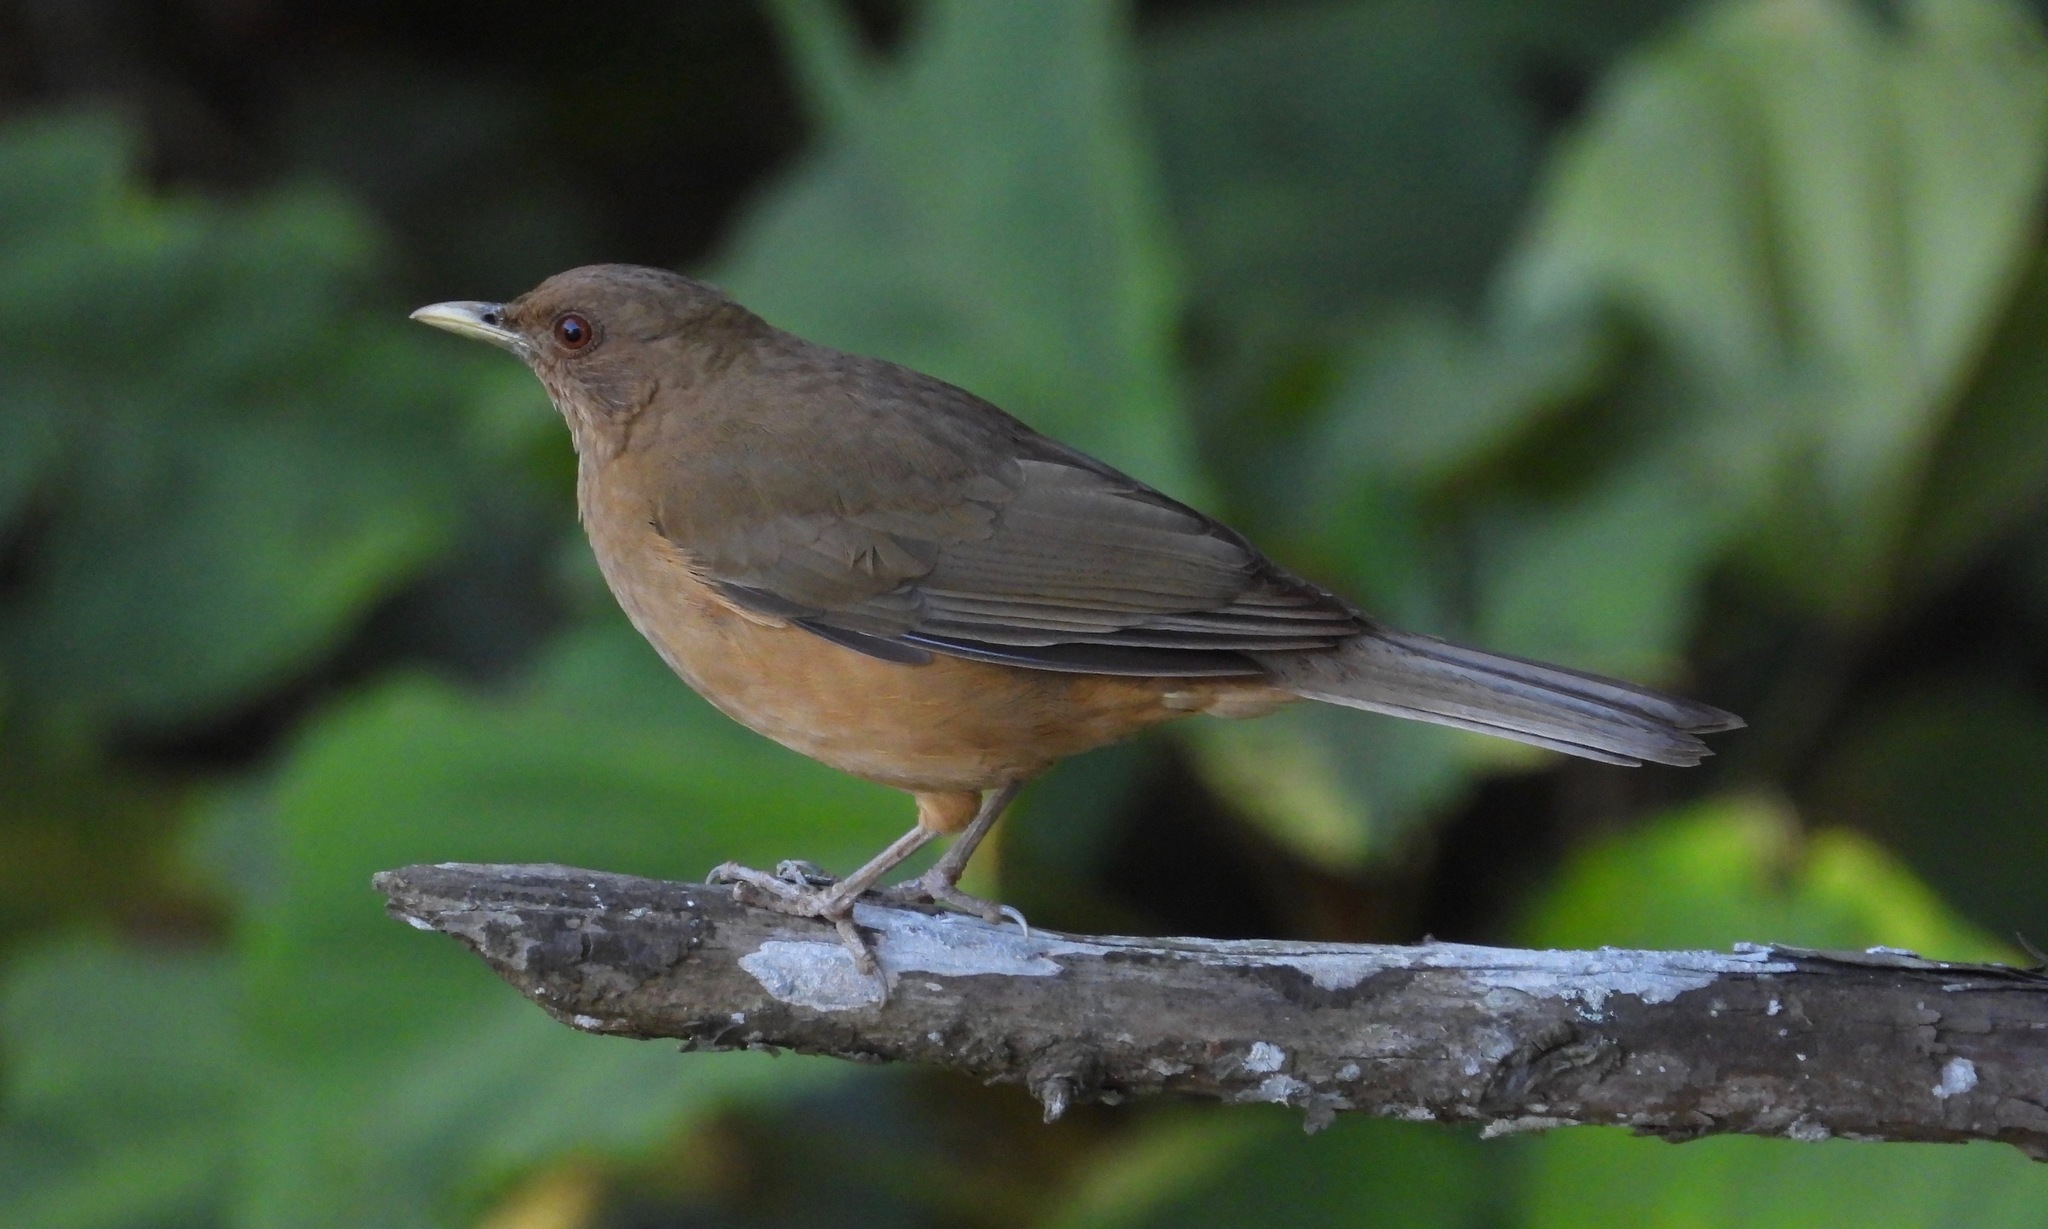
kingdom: Animalia
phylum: Chordata
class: Aves
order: Passeriformes
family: Turdidae
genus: Turdus
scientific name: Turdus grayi
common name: Clay-colored thrush
